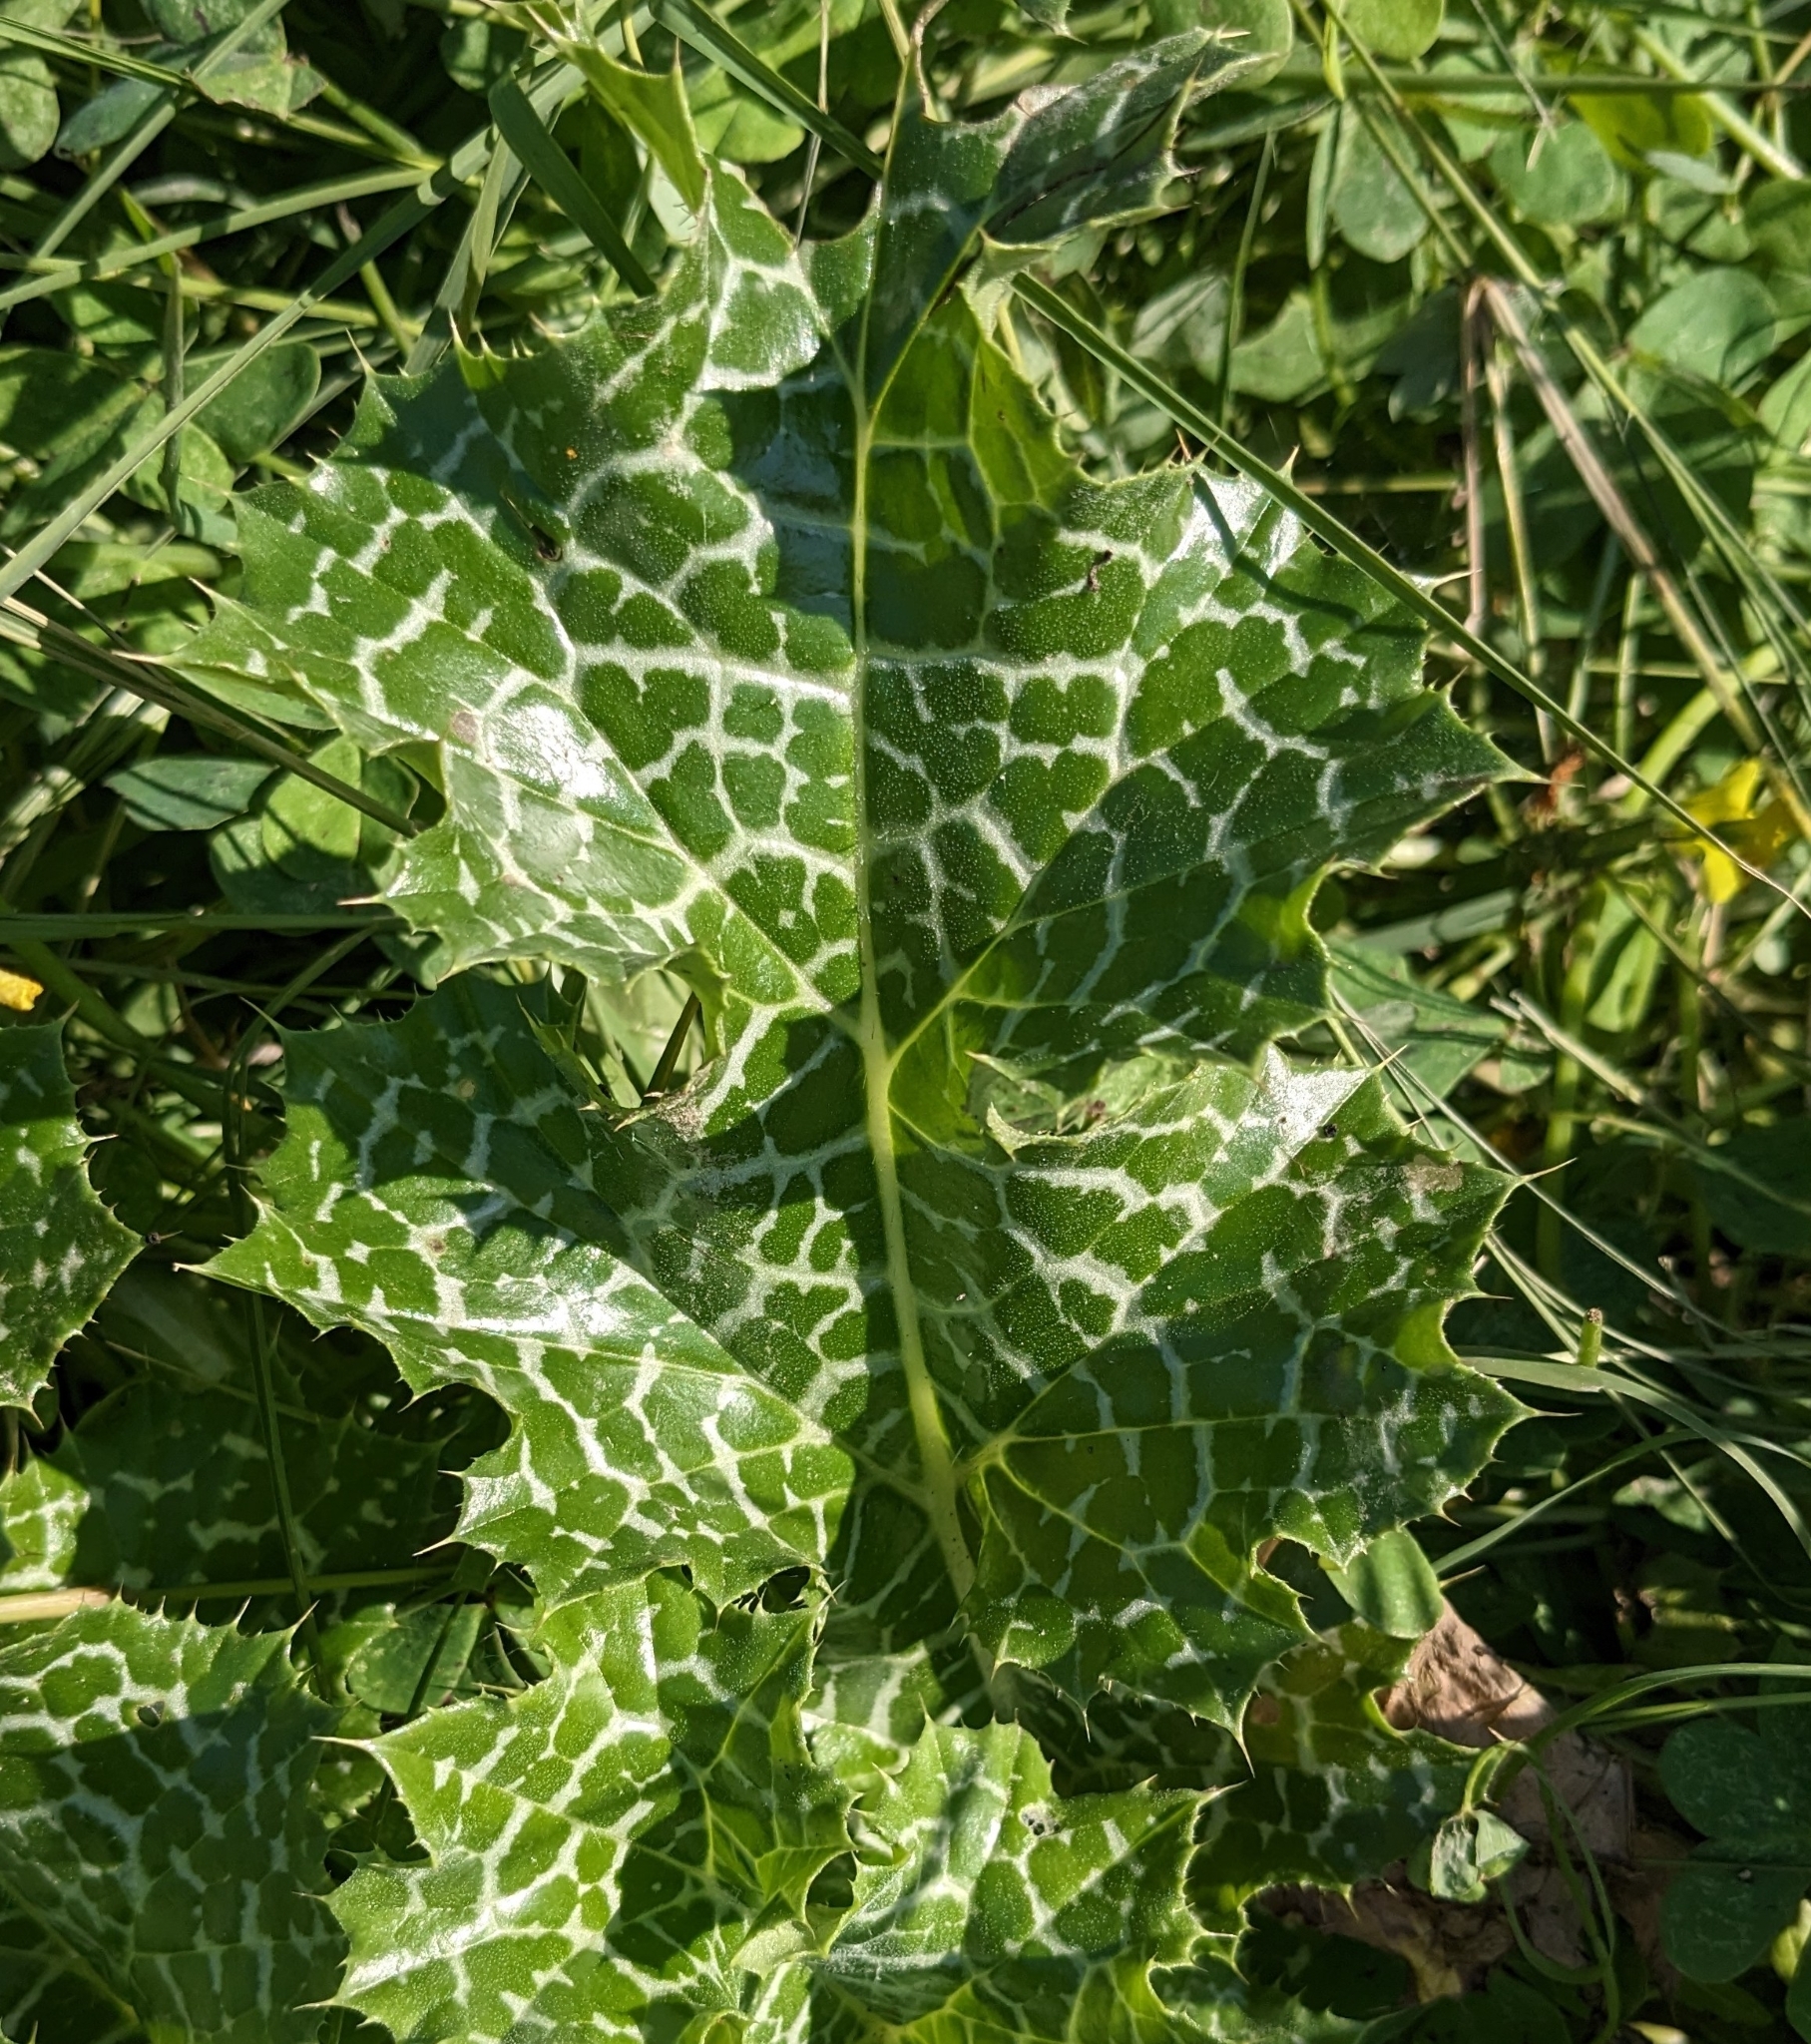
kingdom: Plantae
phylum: Tracheophyta
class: Magnoliopsida
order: Asterales
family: Asteraceae
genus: Silybum
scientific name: Silybum marianum
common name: Milk thistle
